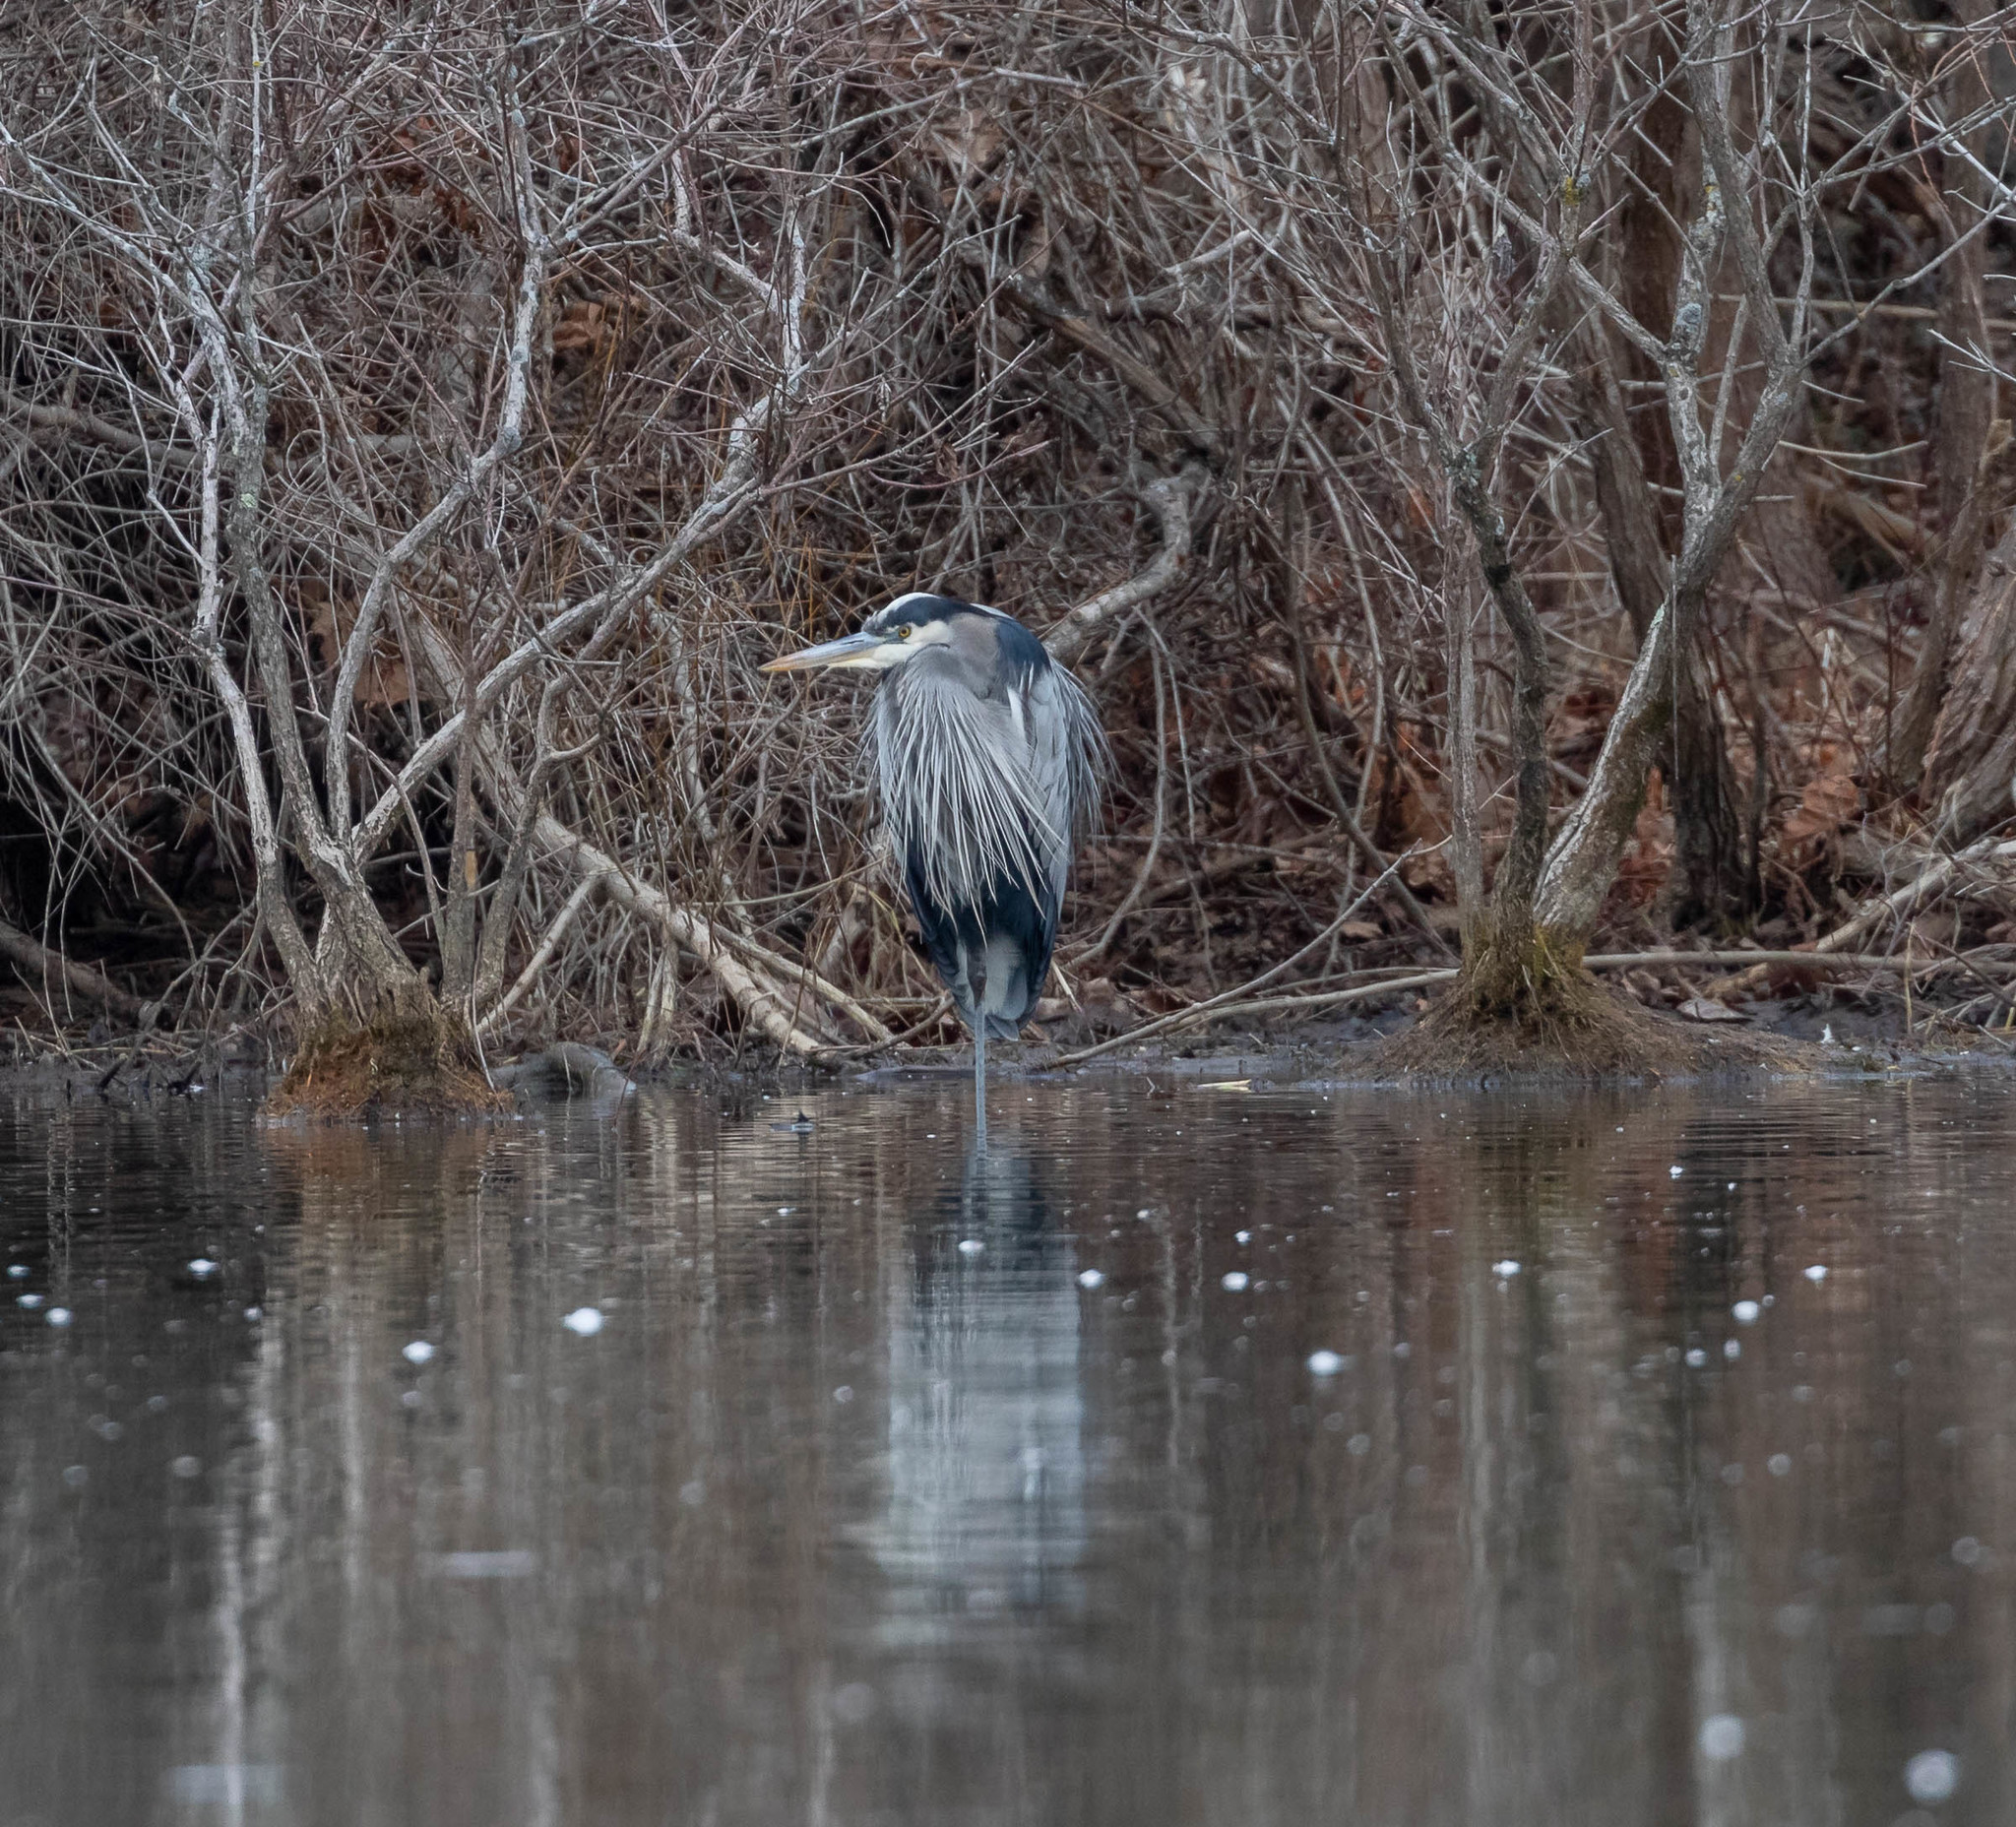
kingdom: Animalia
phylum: Chordata
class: Aves
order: Pelecaniformes
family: Ardeidae
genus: Ardea
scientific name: Ardea herodias
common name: Great blue heron
